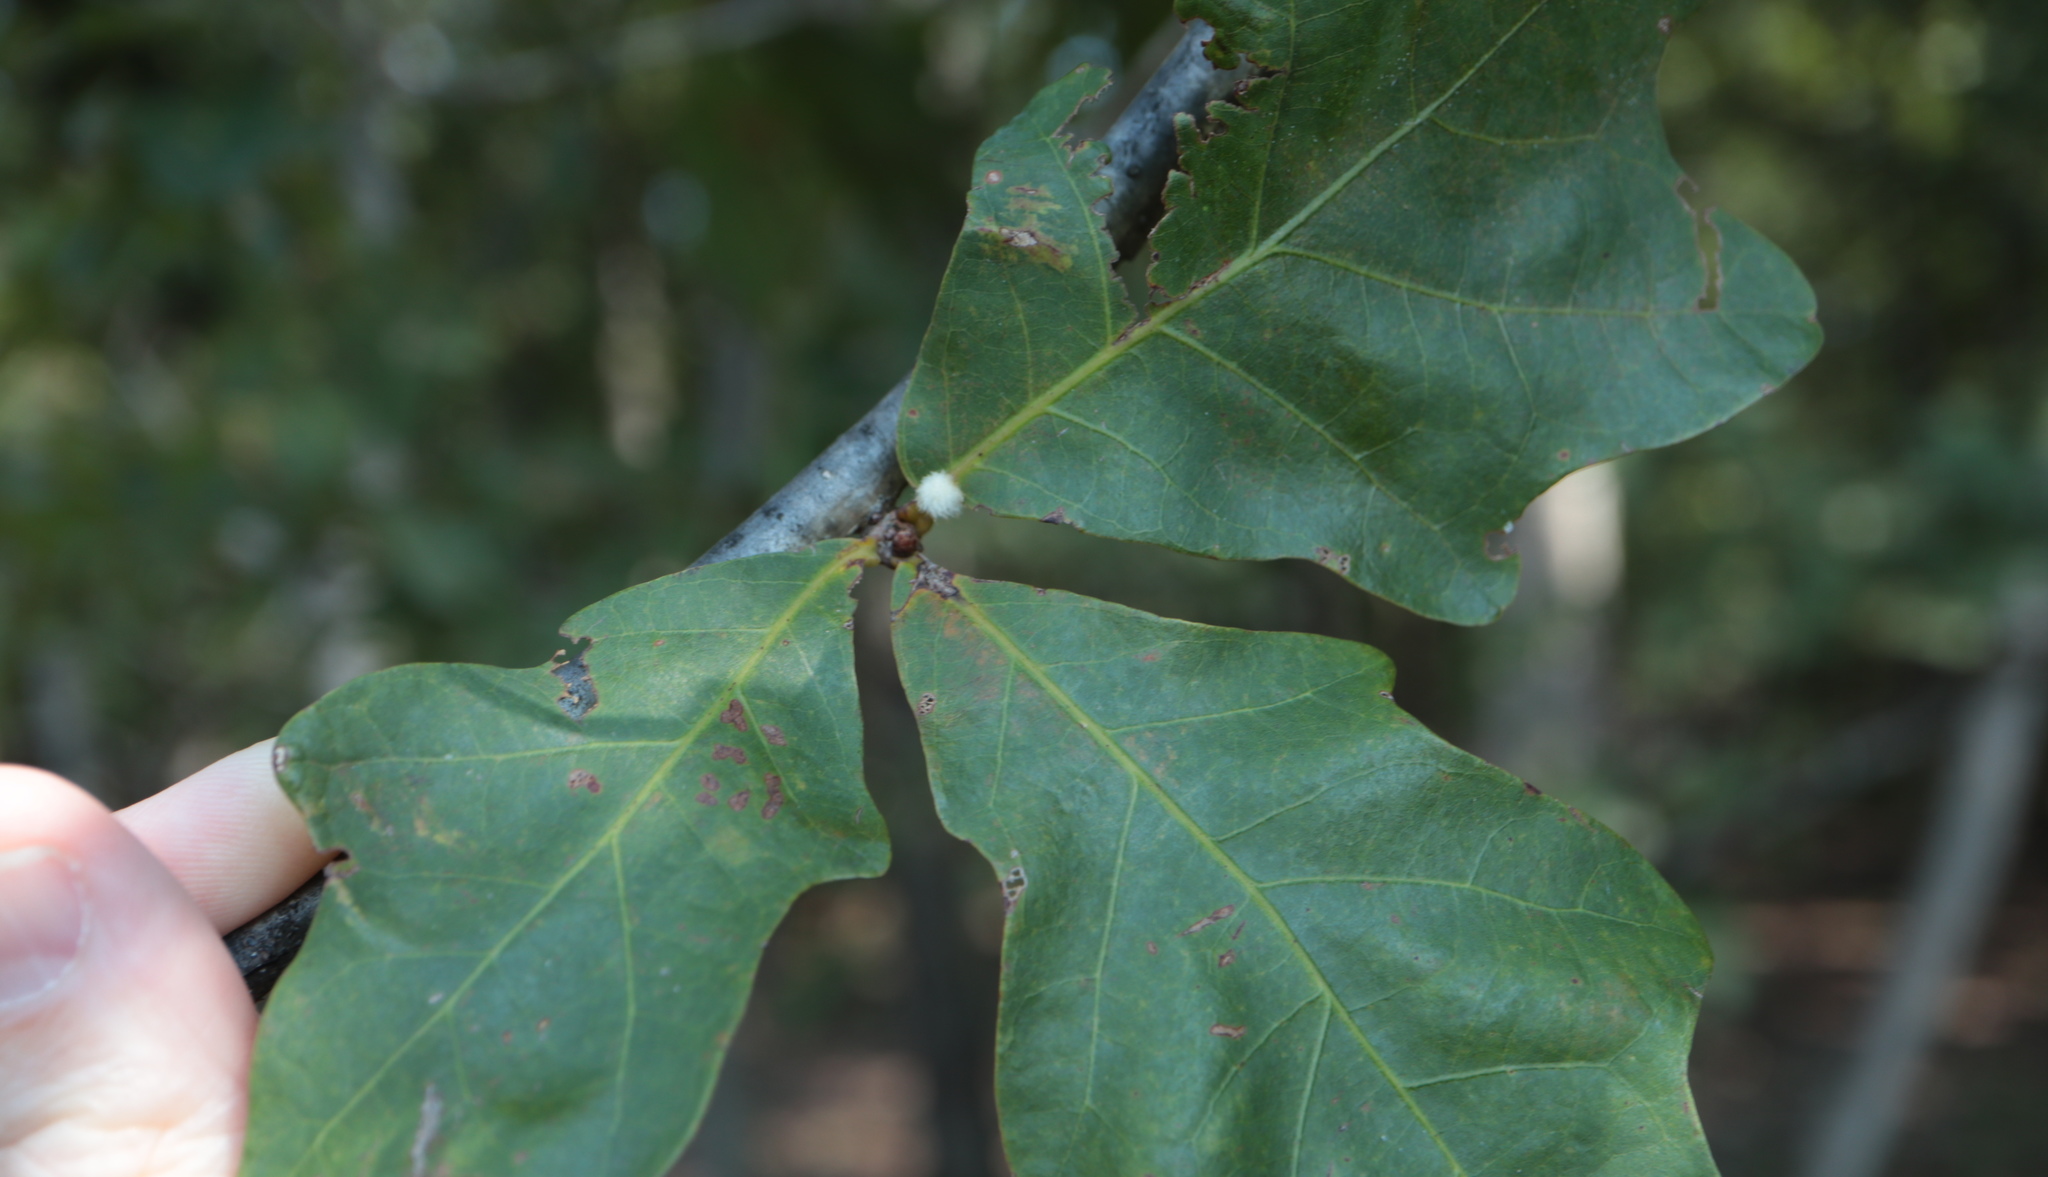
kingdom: Animalia
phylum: Arthropoda
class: Insecta
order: Hymenoptera
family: Cynipidae
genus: Andricus
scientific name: Andricus quercusflocci
